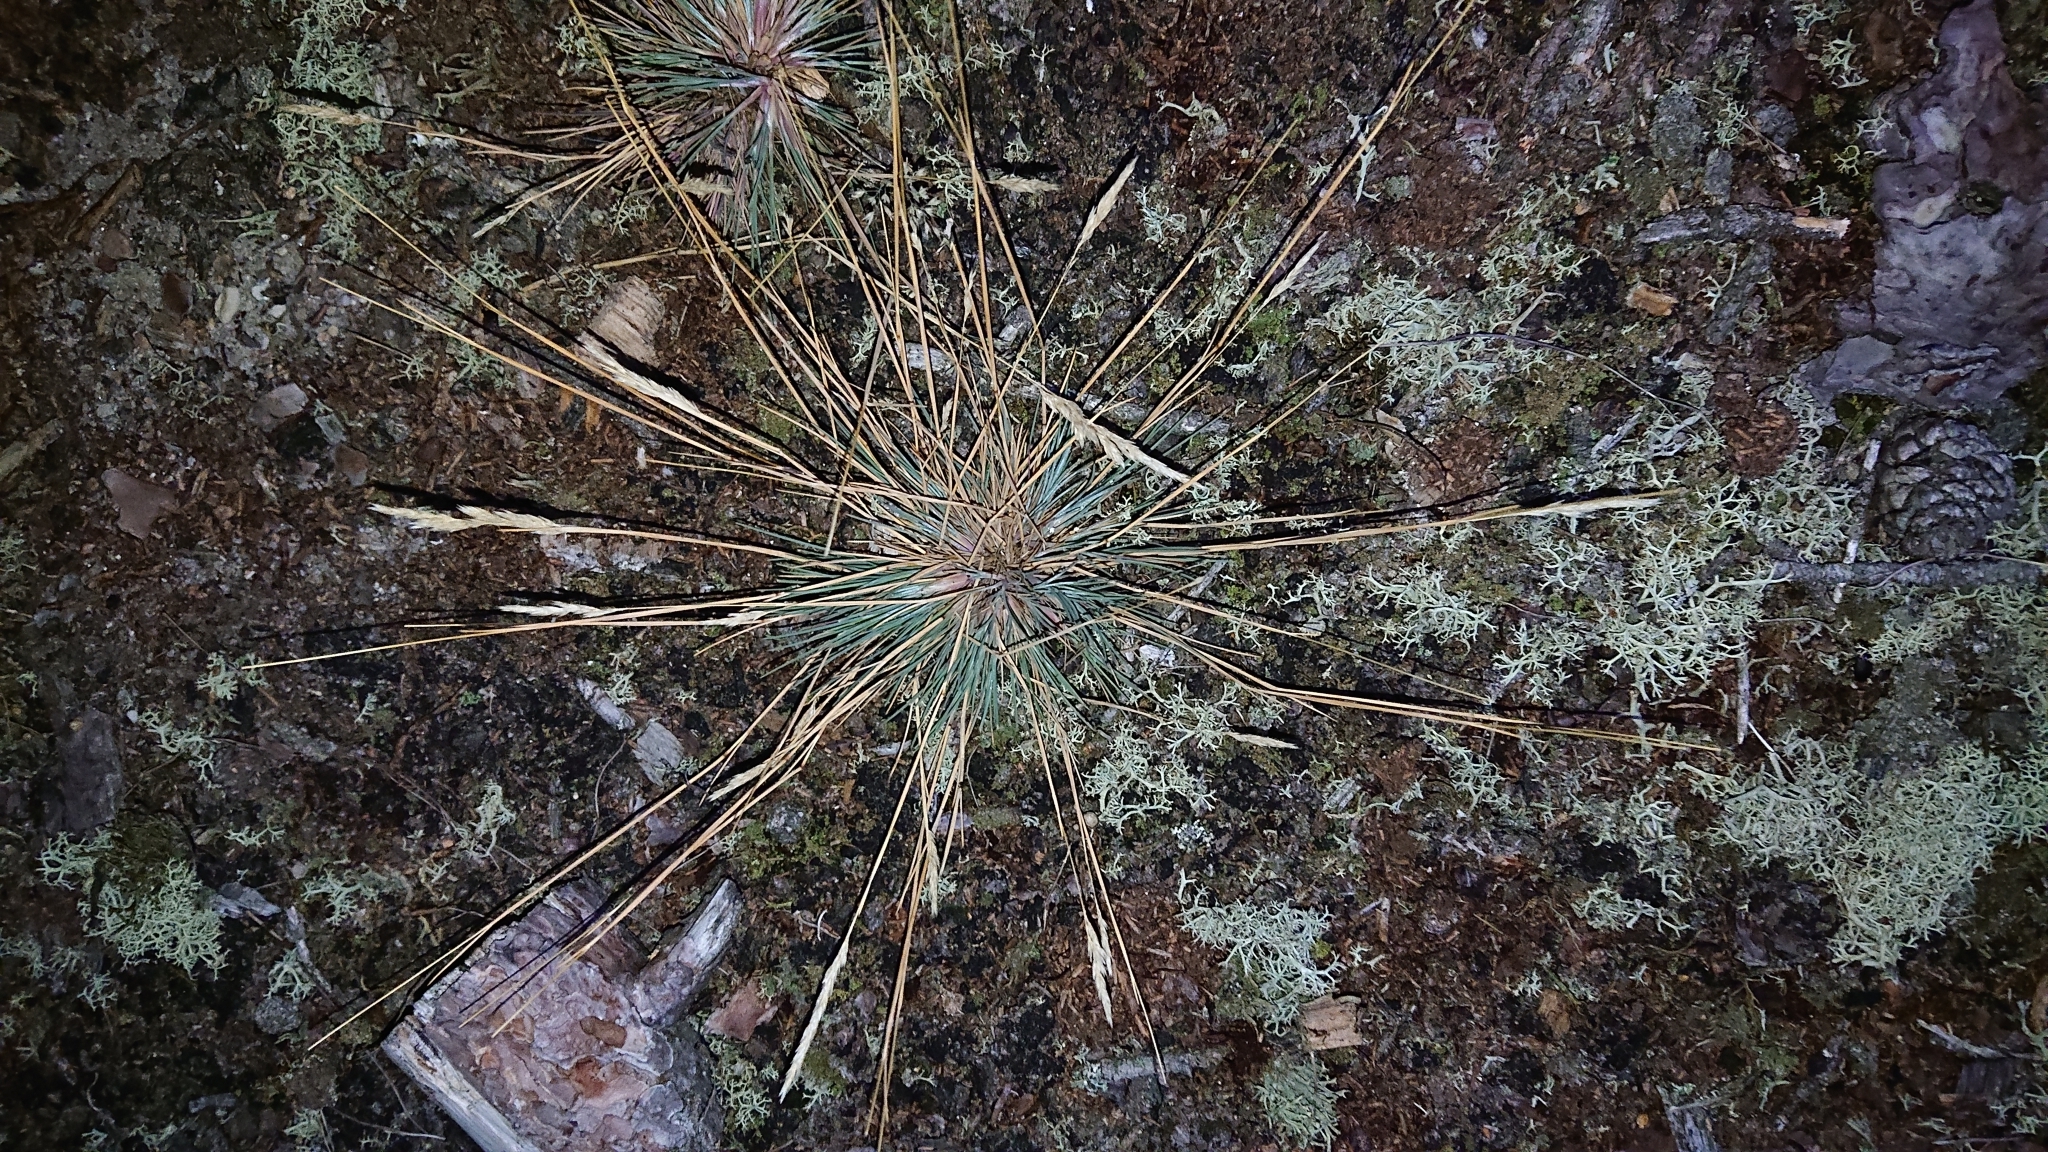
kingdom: Plantae
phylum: Tracheophyta
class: Liliopsida
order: Poales
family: Poaceae
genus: Corynephorus
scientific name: Corynephorus canescens
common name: Grey hair-grass
